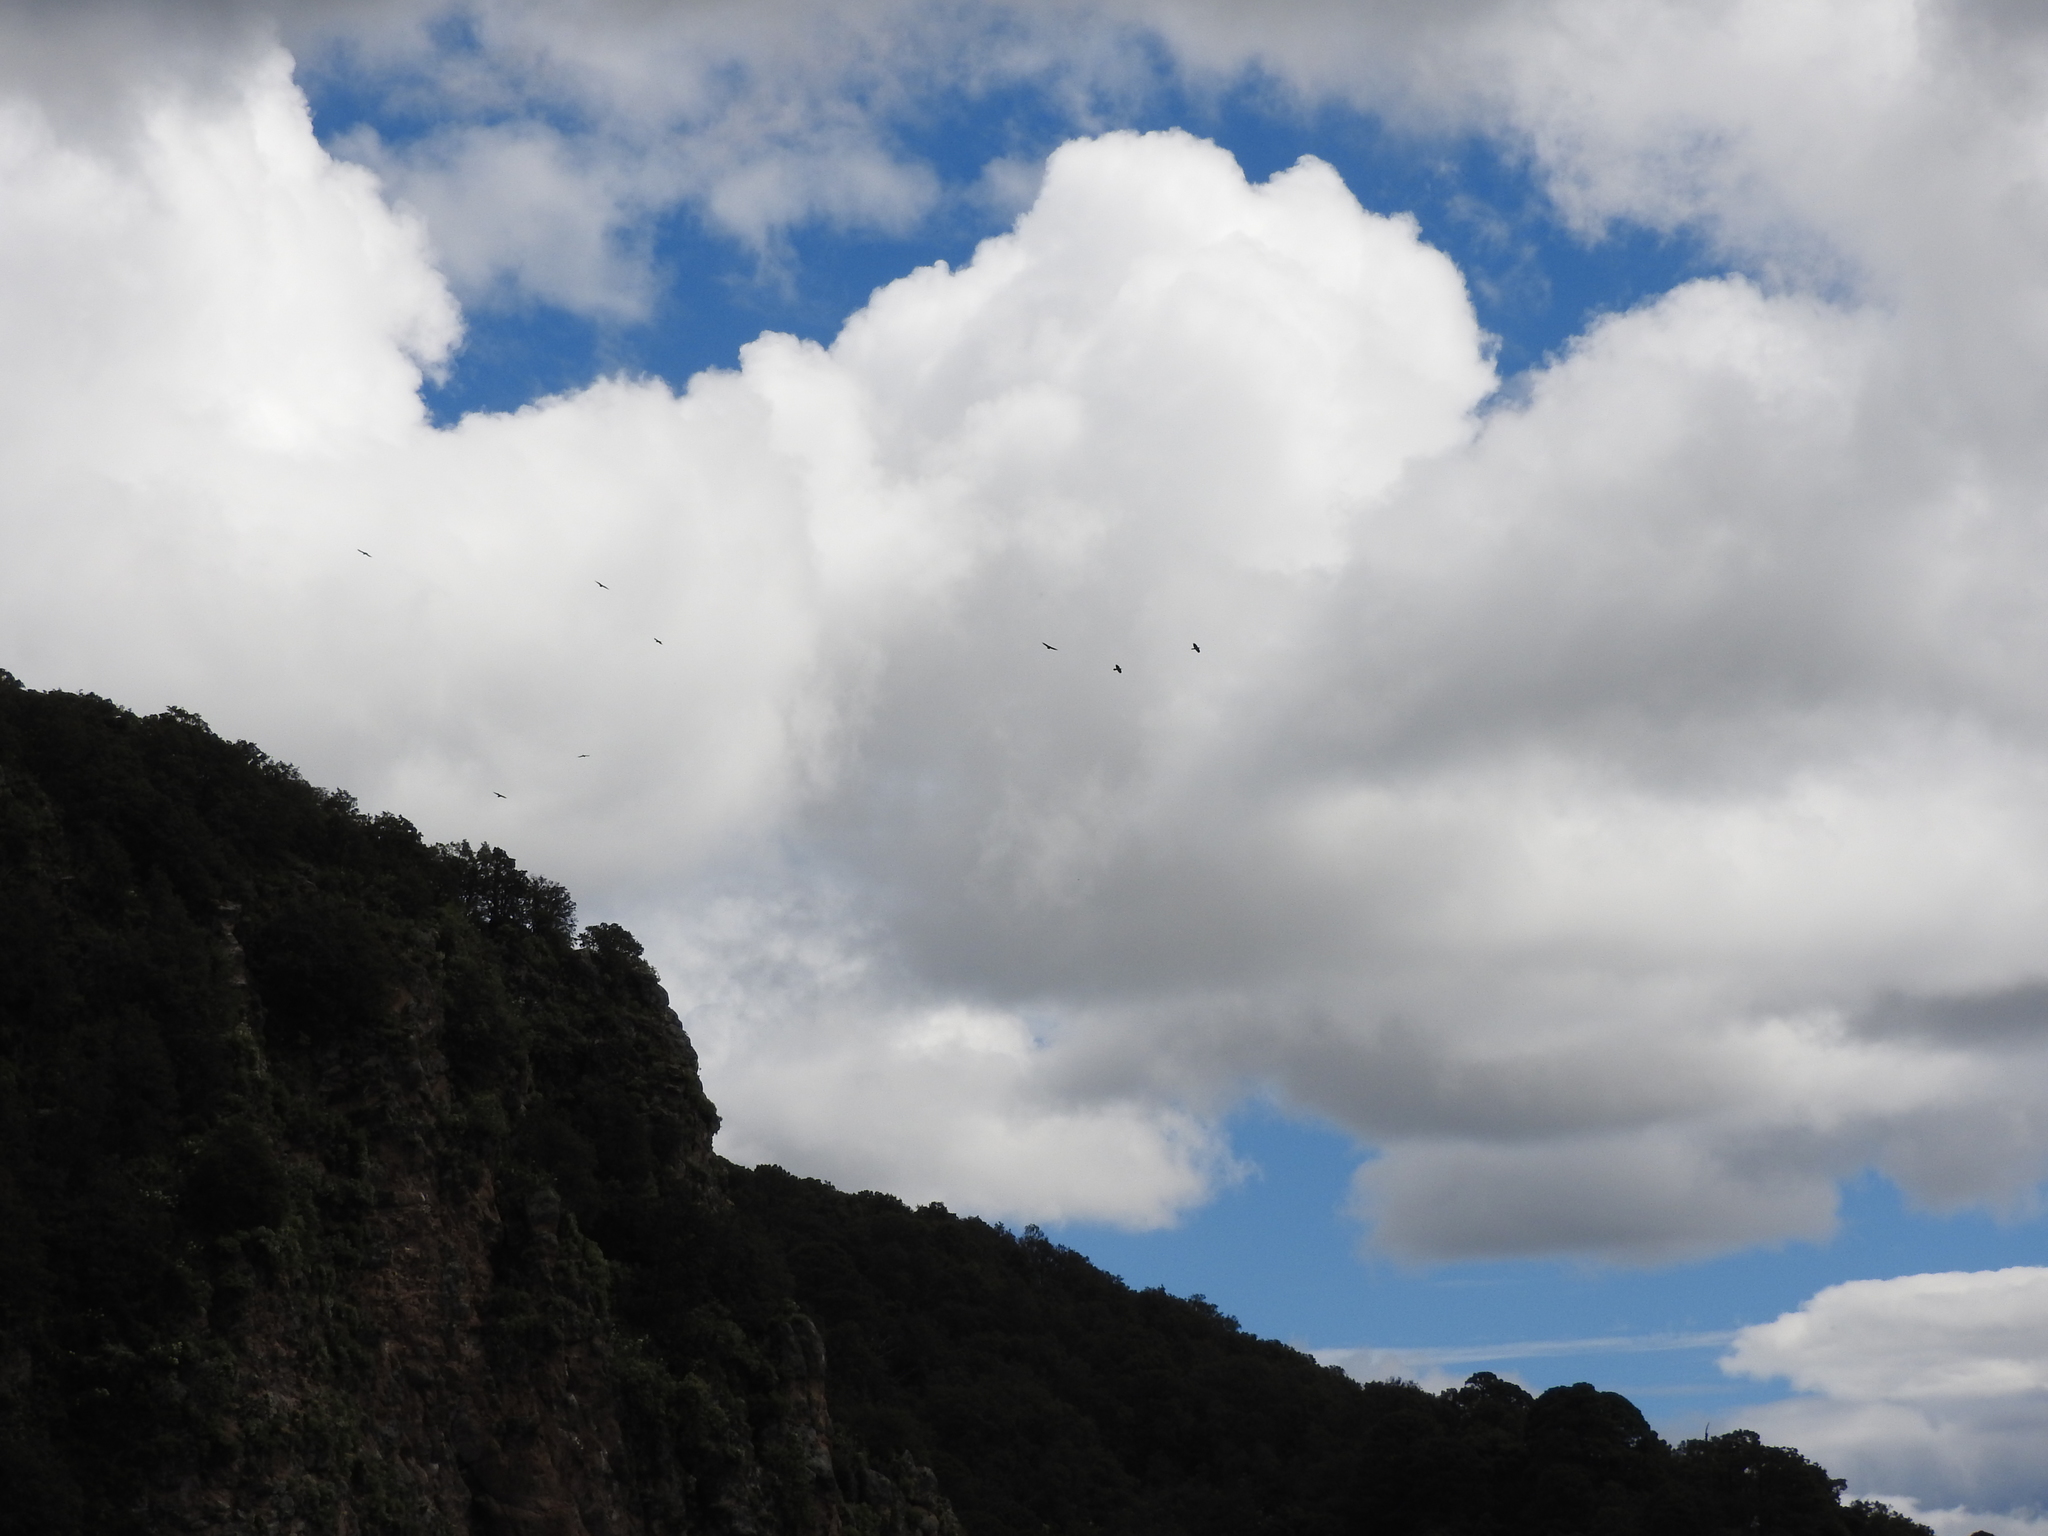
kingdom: Animalia
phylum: Chordata
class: Aves
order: Passeriformes
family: Corvidae
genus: Corvus
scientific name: Corvus corax
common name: Common raven
